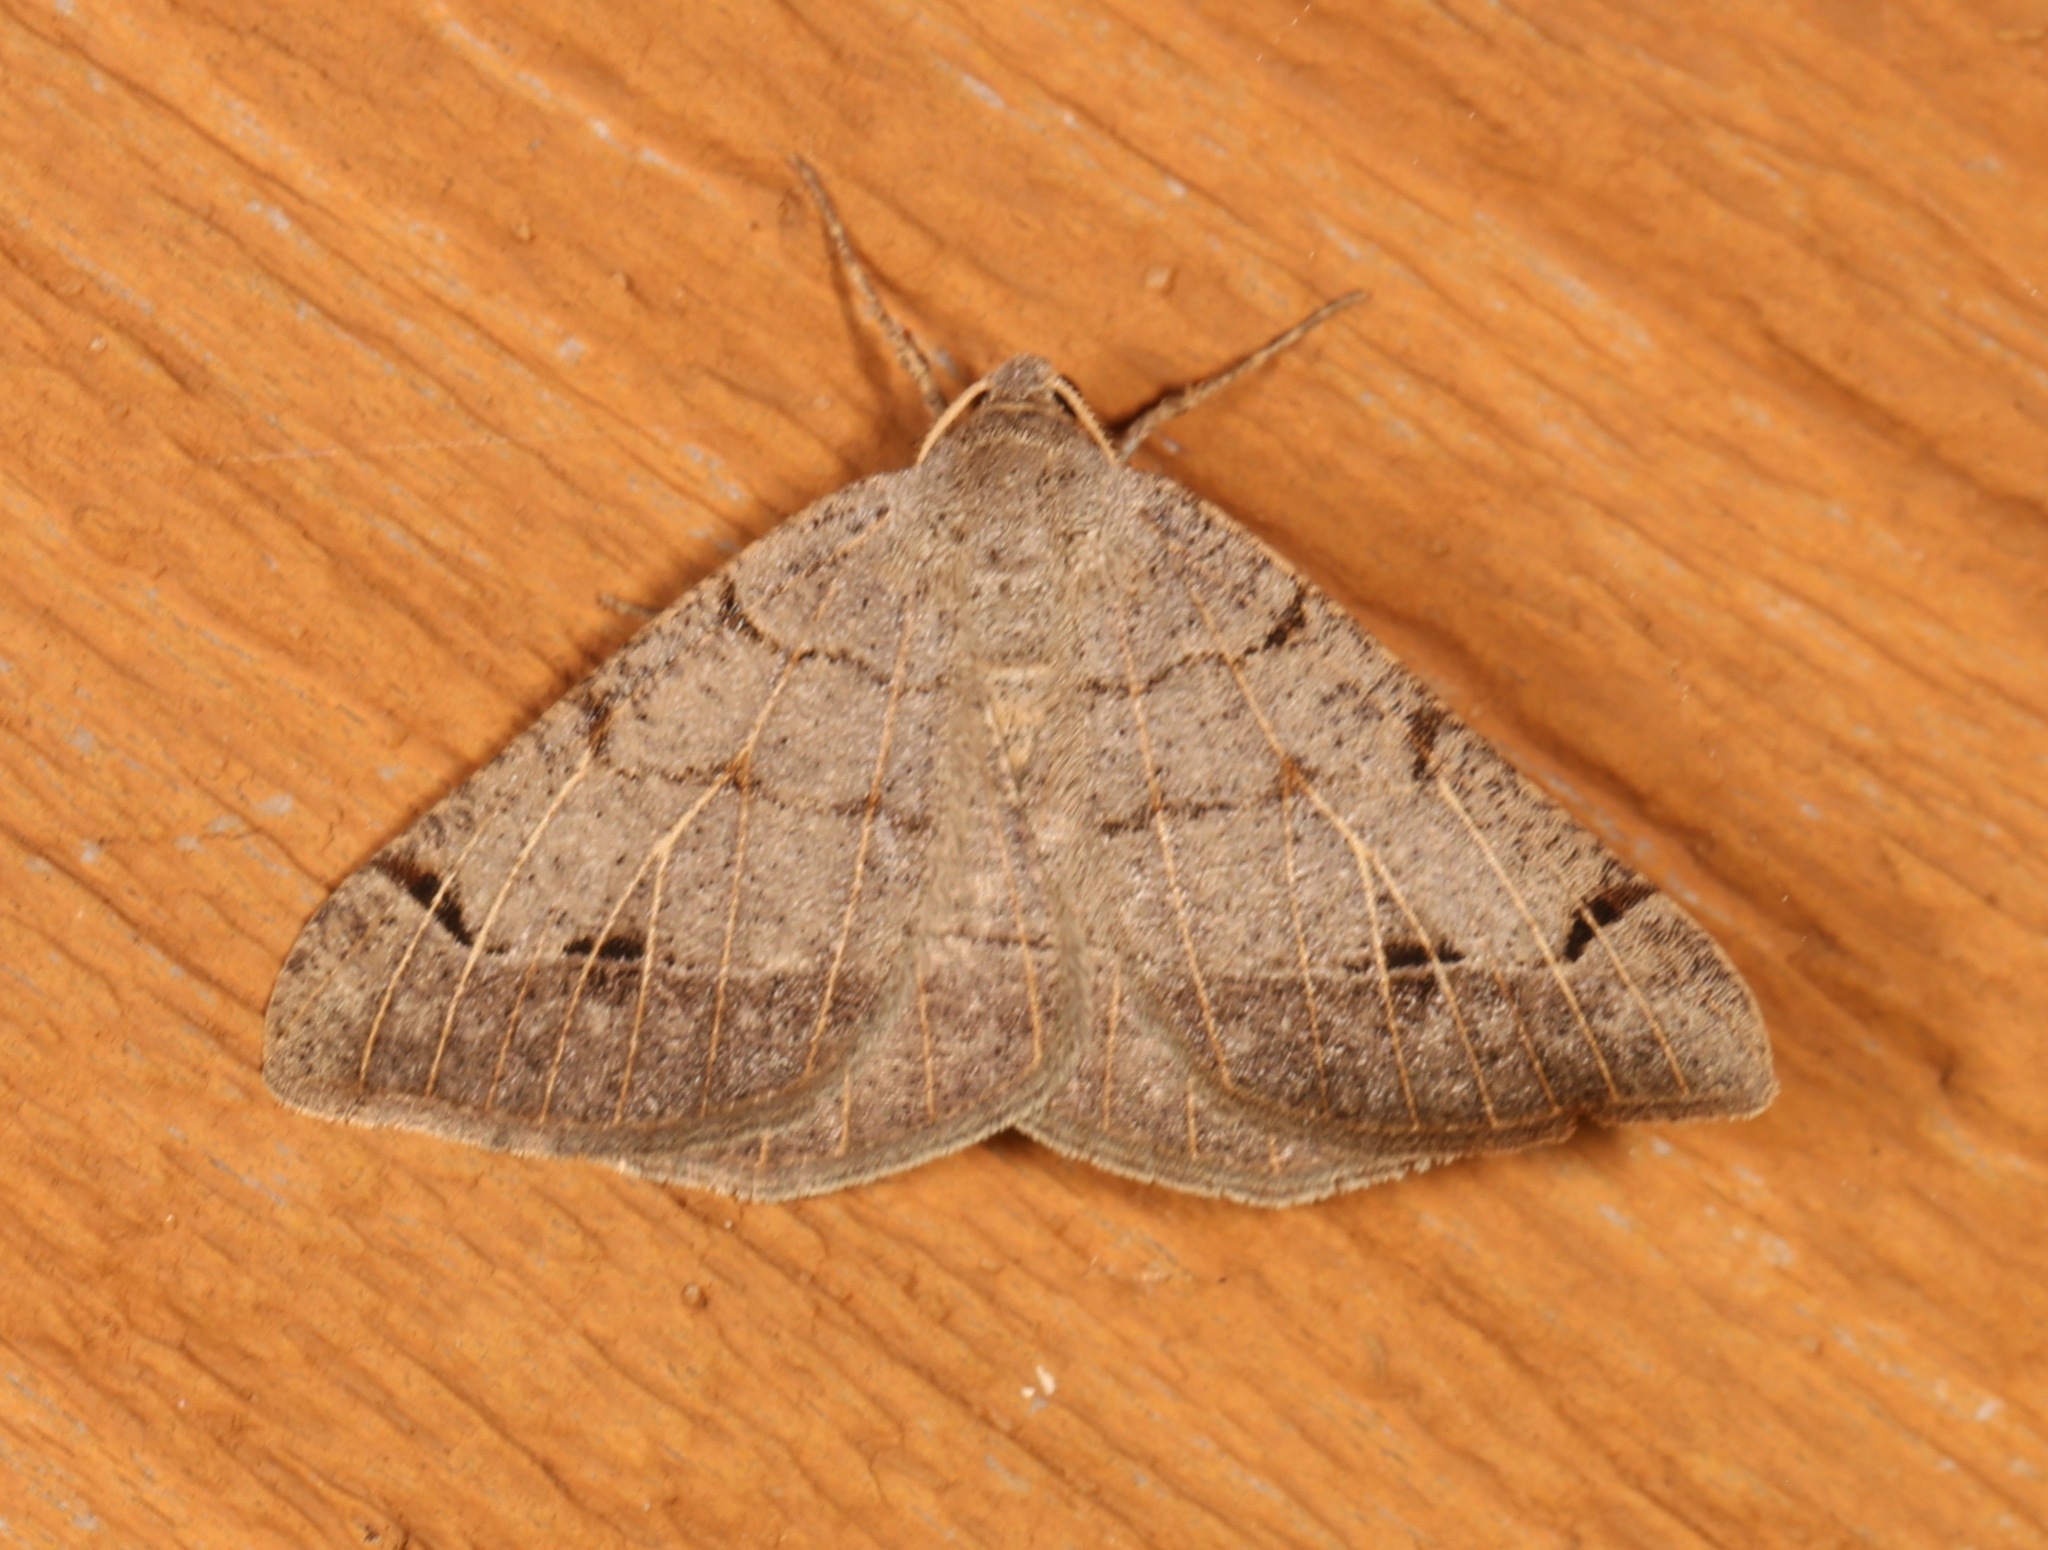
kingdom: Animalia
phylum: Arthropoda
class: Insecta
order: Lepidoptera
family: Geometridae
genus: Isturgia
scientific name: Isturgia dislocaria
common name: Pale-viened enconista
